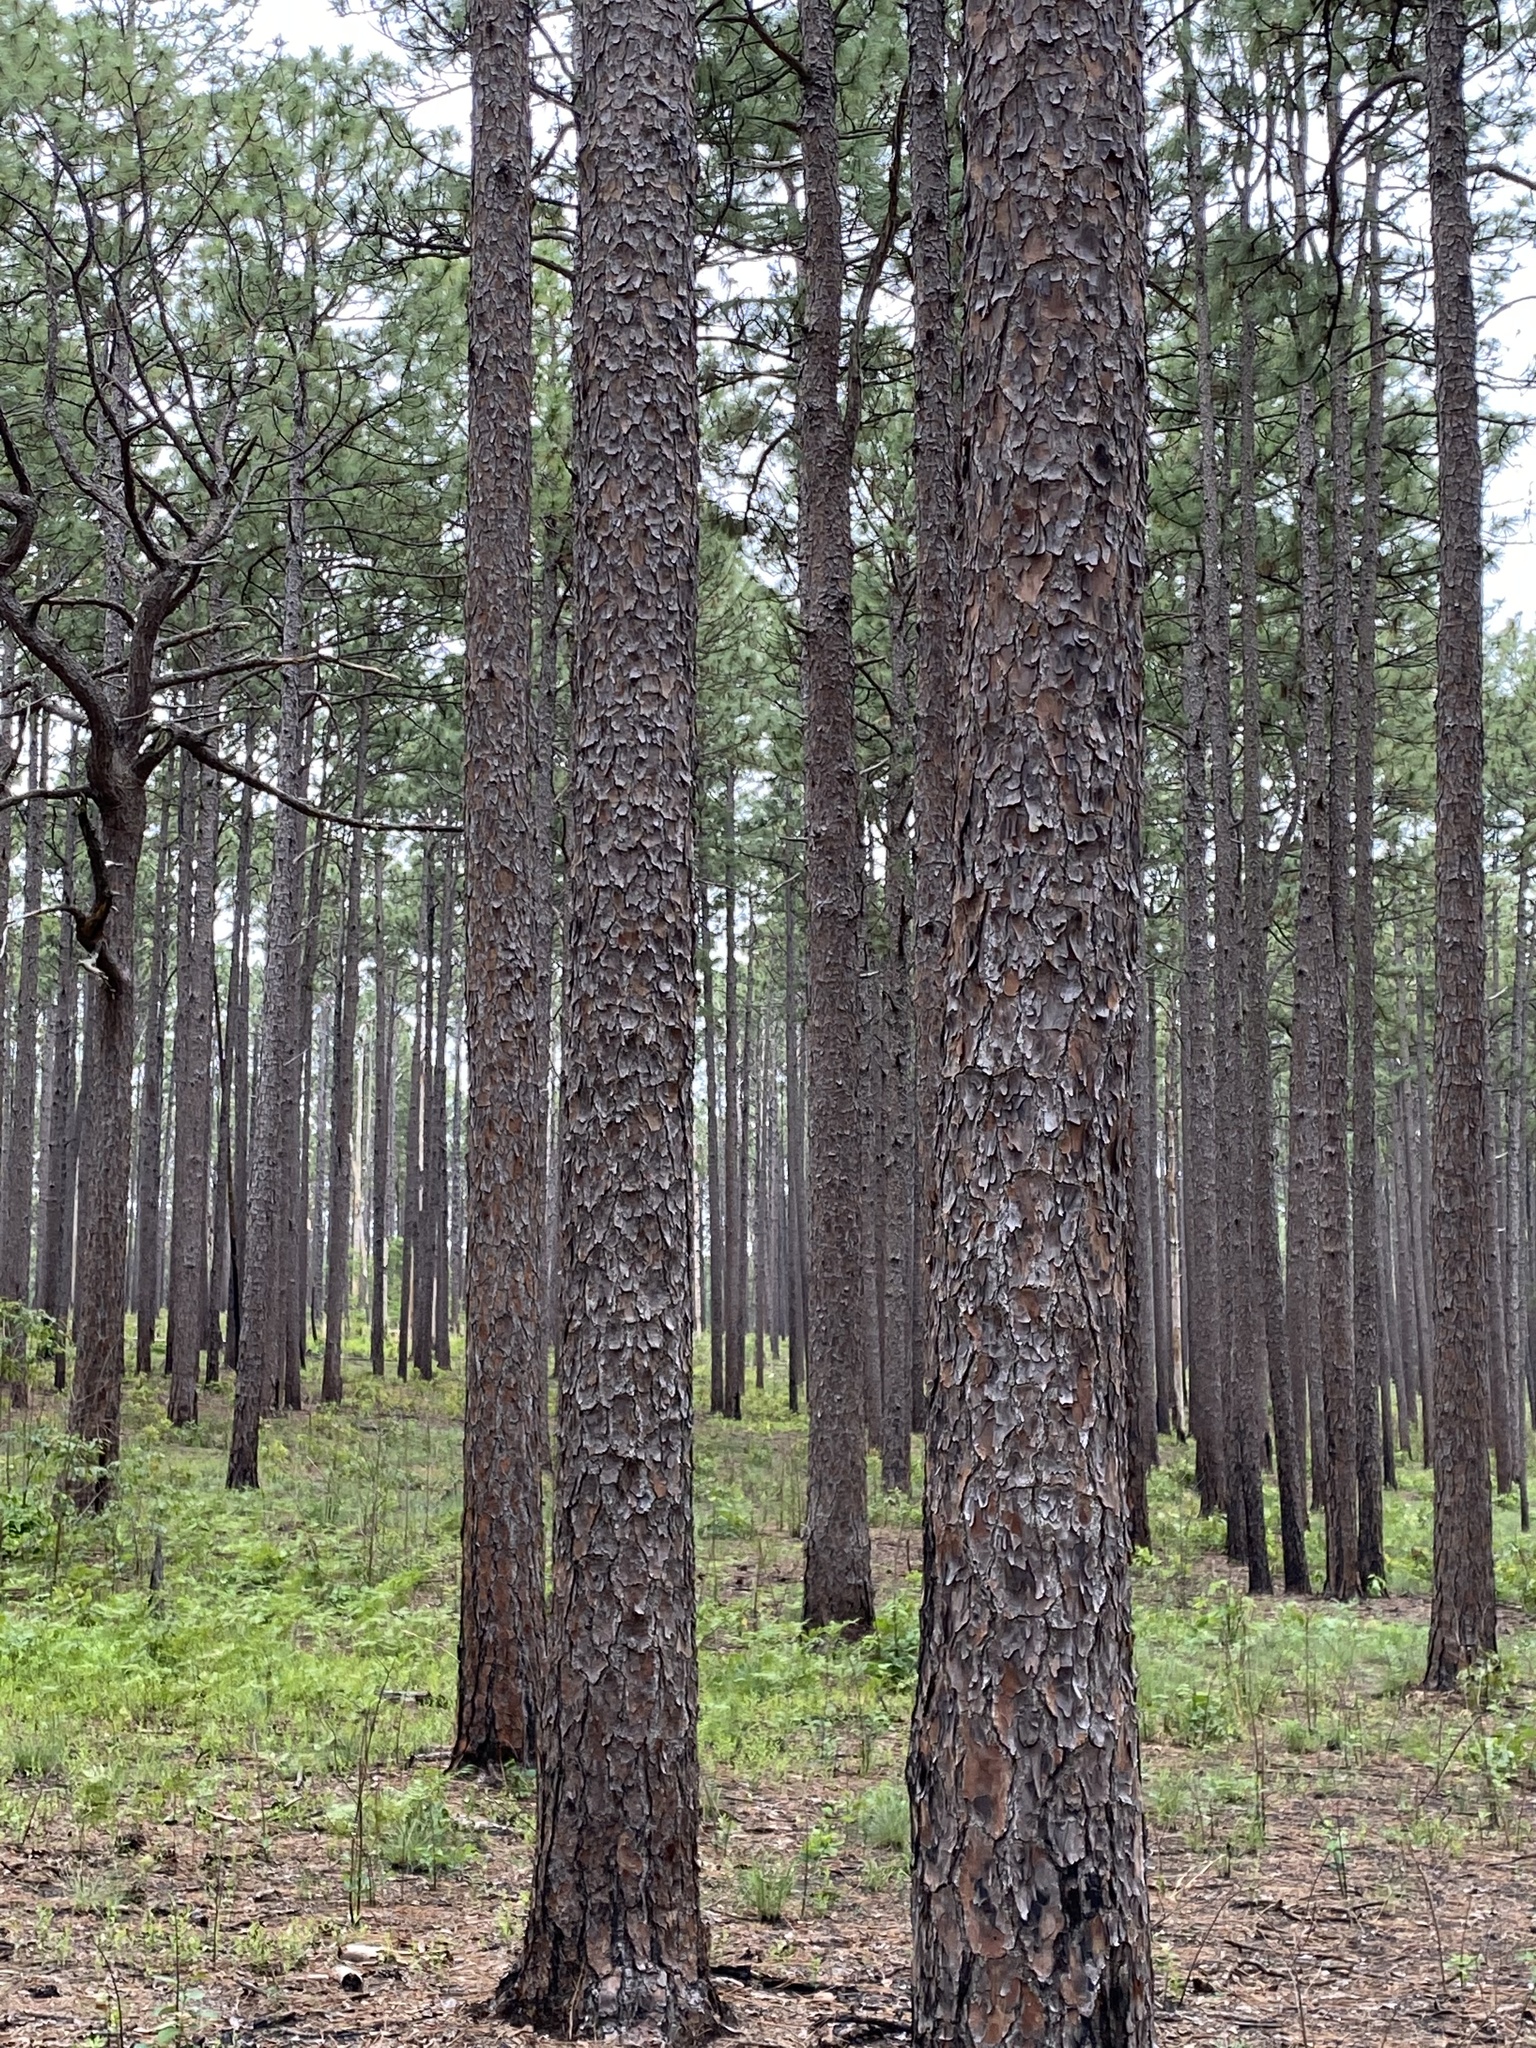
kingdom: Plantae
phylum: Tracheophyta
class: Pinopsida
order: Pinales
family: Pinaceae
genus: Pinus
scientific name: Pinus palustris
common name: Longleaf pine
